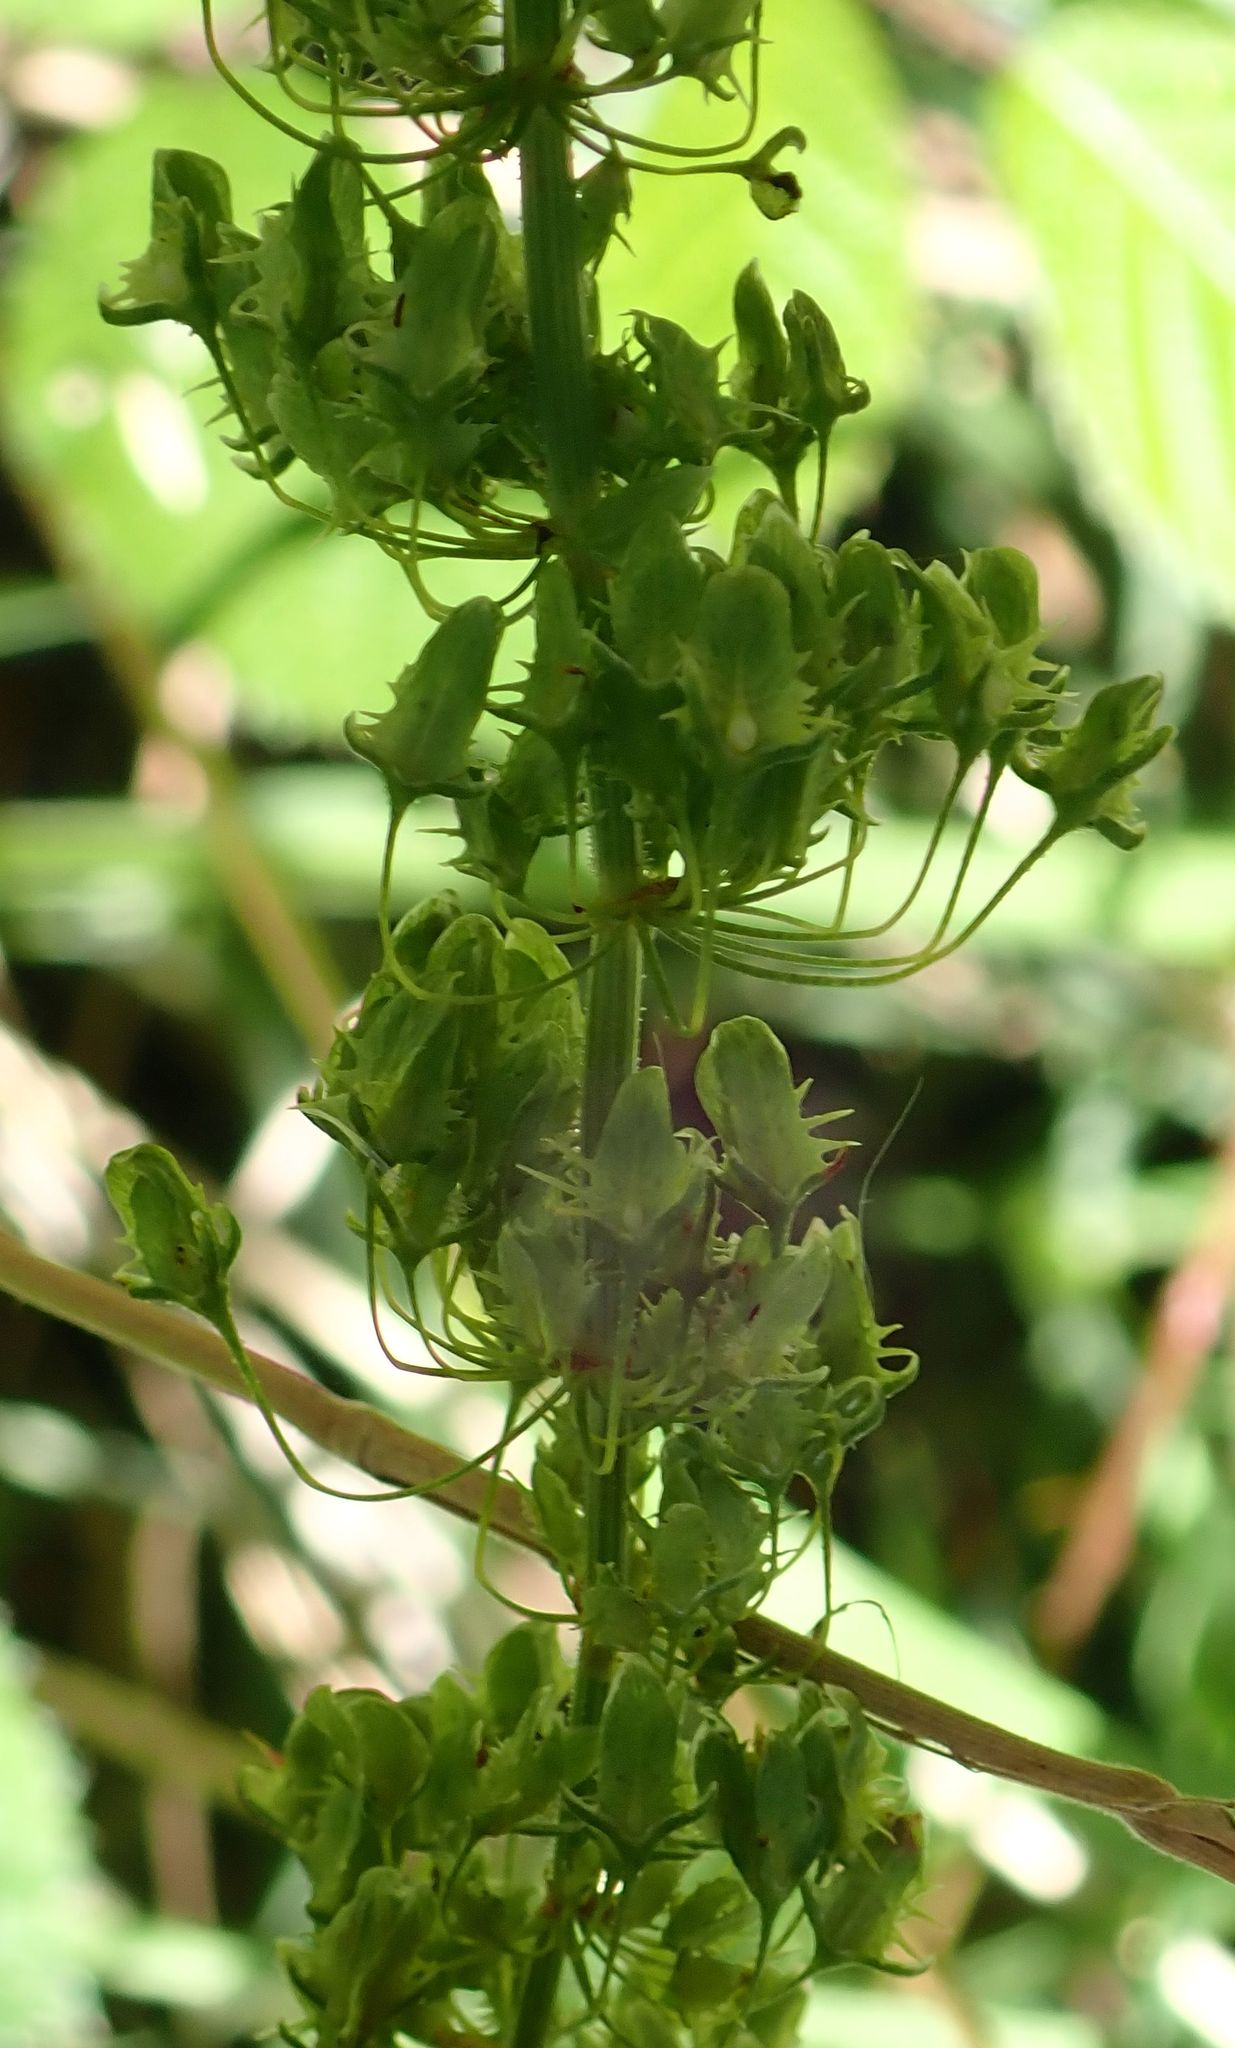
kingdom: Plantae
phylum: Tracheophyta
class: Magnoliopsida
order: Caryophyllales
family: Polygonaceae
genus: Rumex
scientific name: Rumex obtusifolius
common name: Bitter dock
